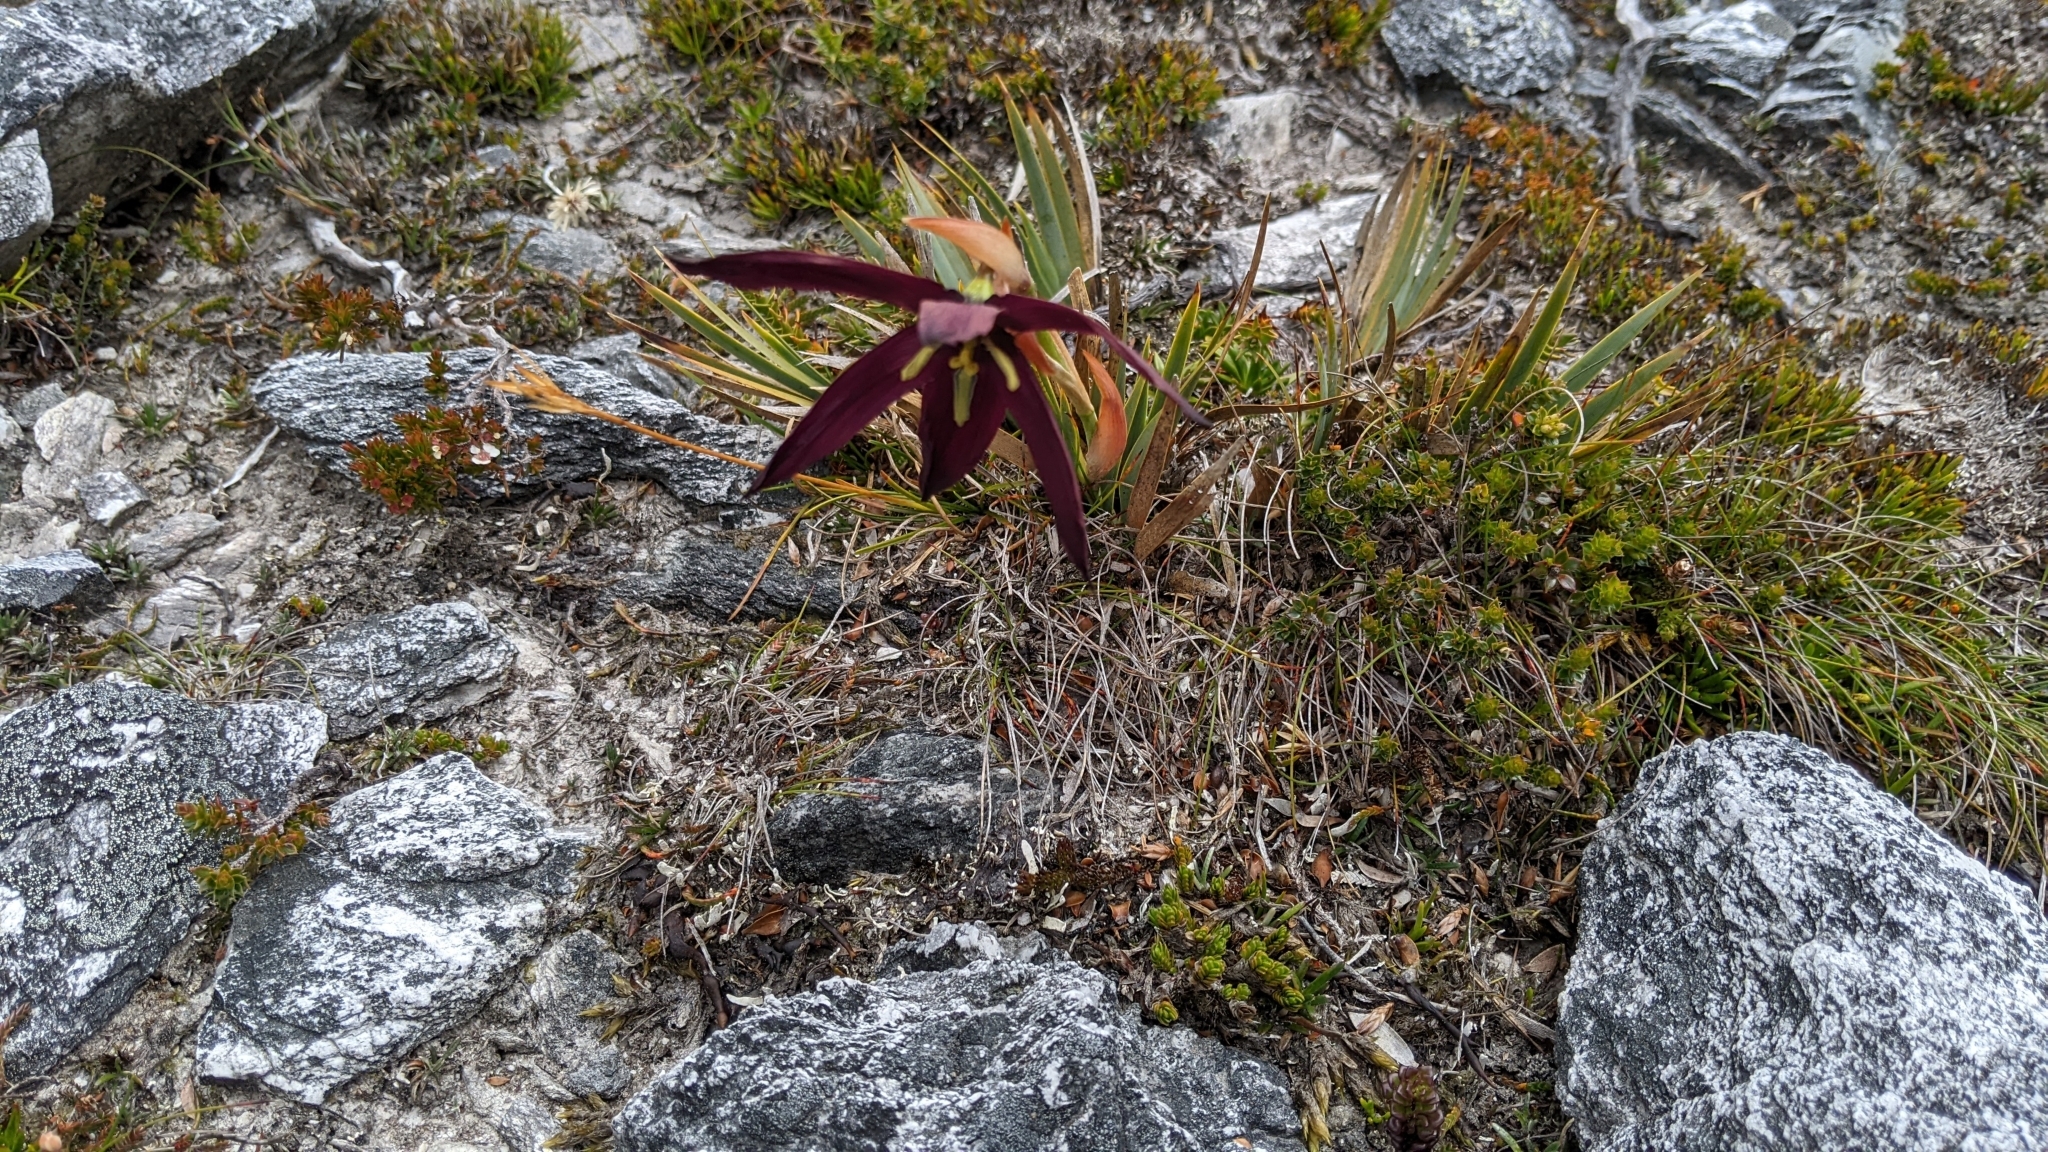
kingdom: Plantae
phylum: Tracheophyta
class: Liliopsida
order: Asparagales
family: Iridaceae
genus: Isophysis
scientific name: Isophysis tasmanica
